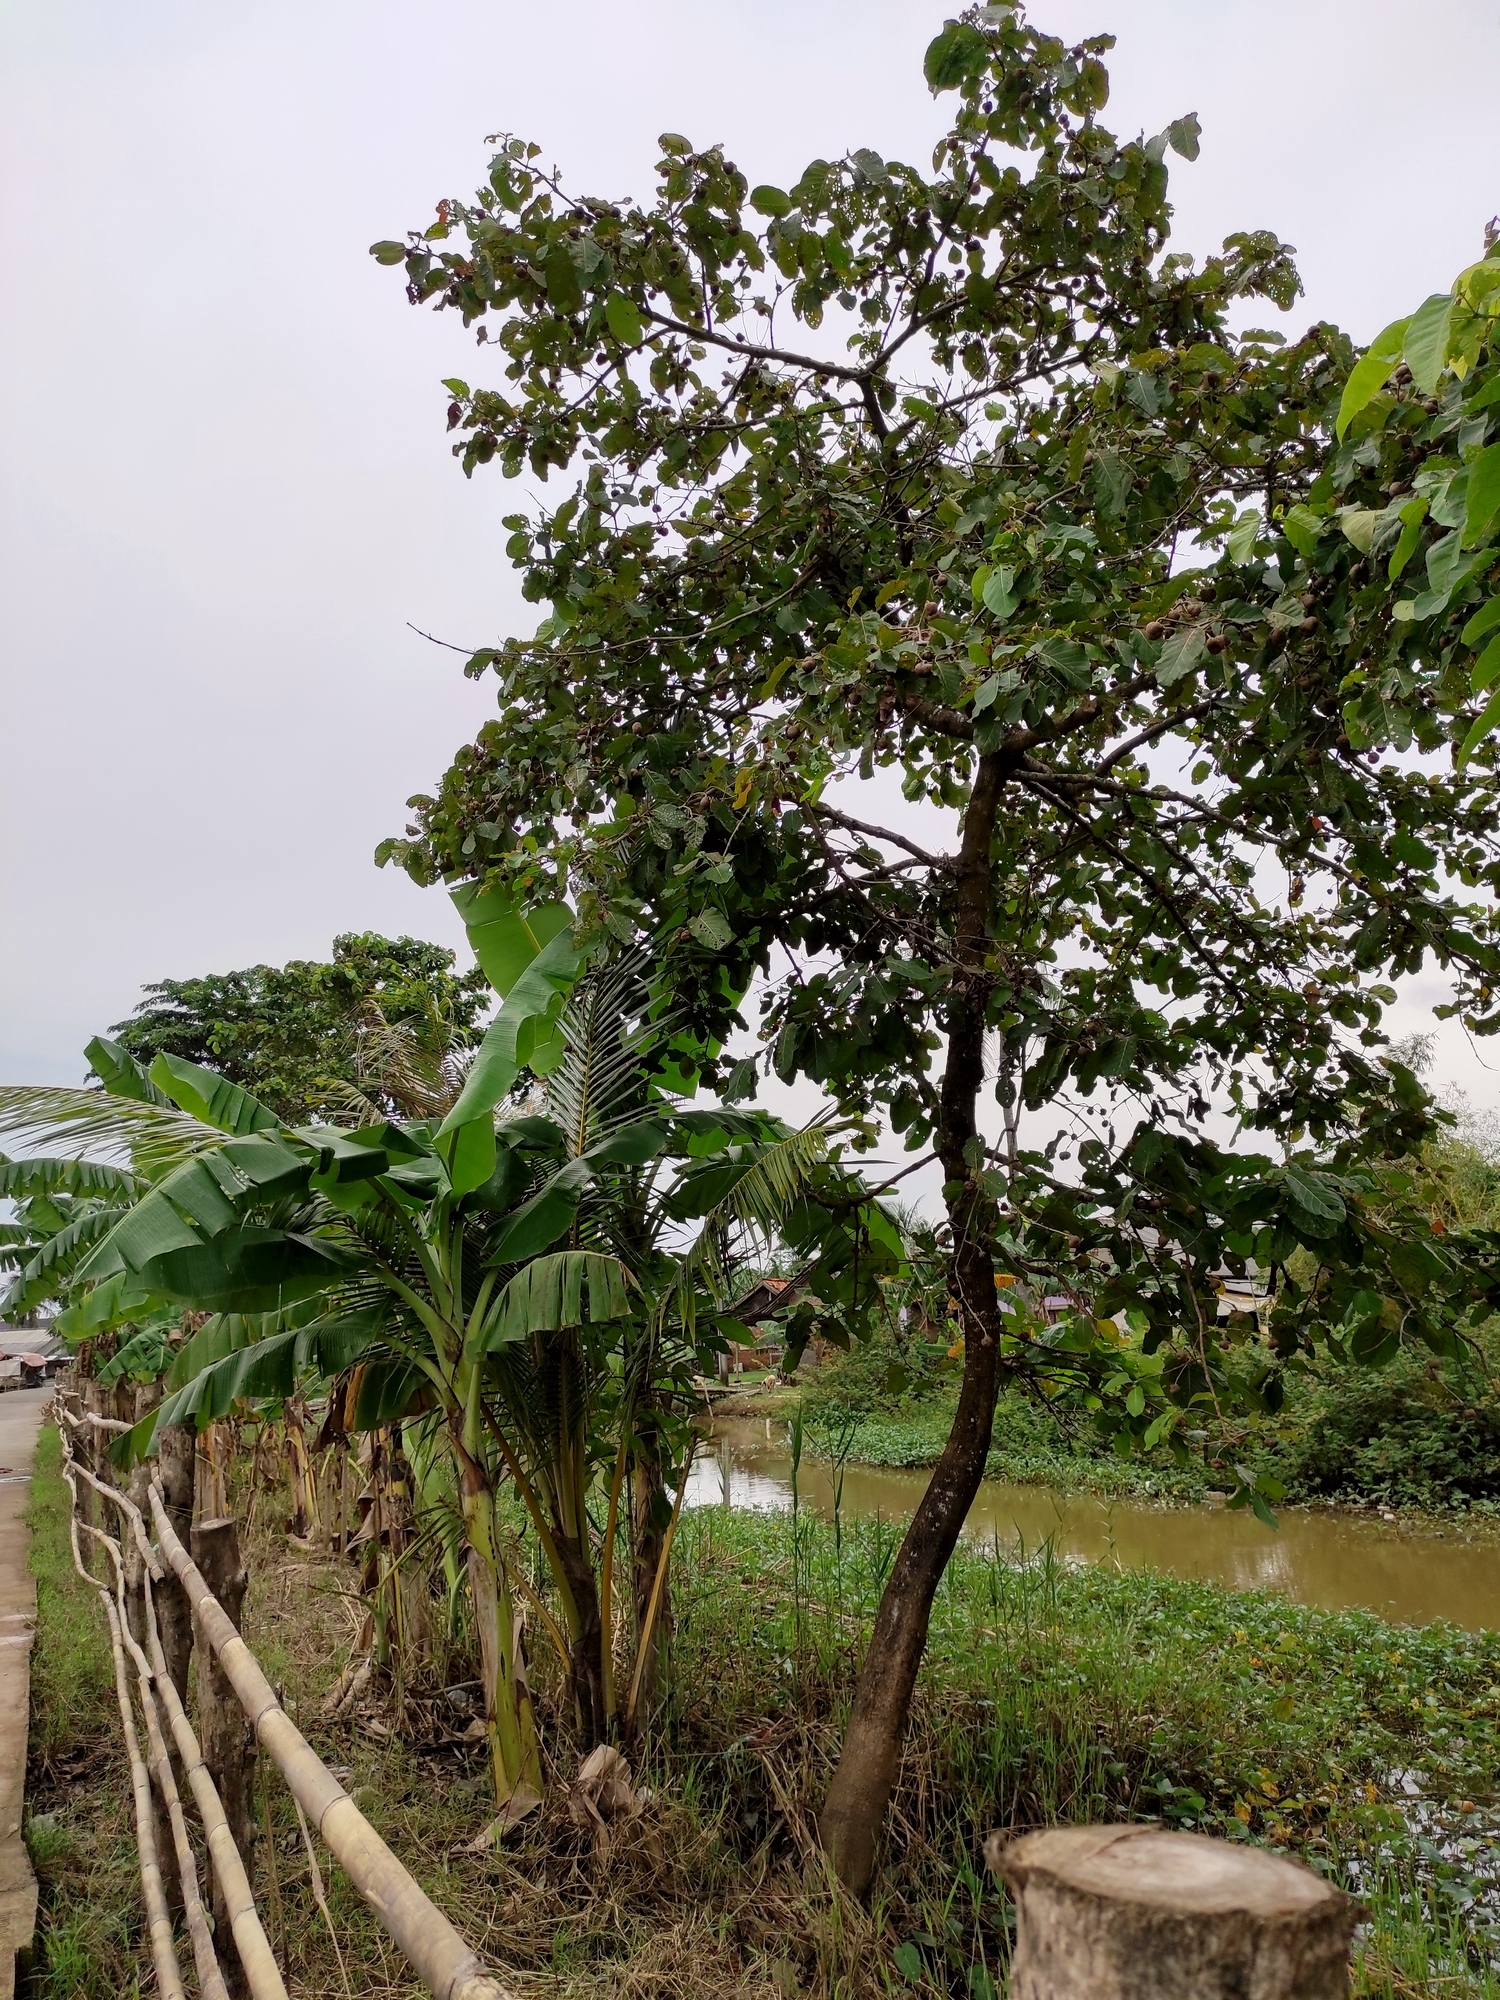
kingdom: Plantae
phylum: Tracheophyta
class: Magnoliopsida
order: Gentianales
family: Rubiaceae
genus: Nauclea
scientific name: Nauclea orientalis
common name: Leichhardt-pine
